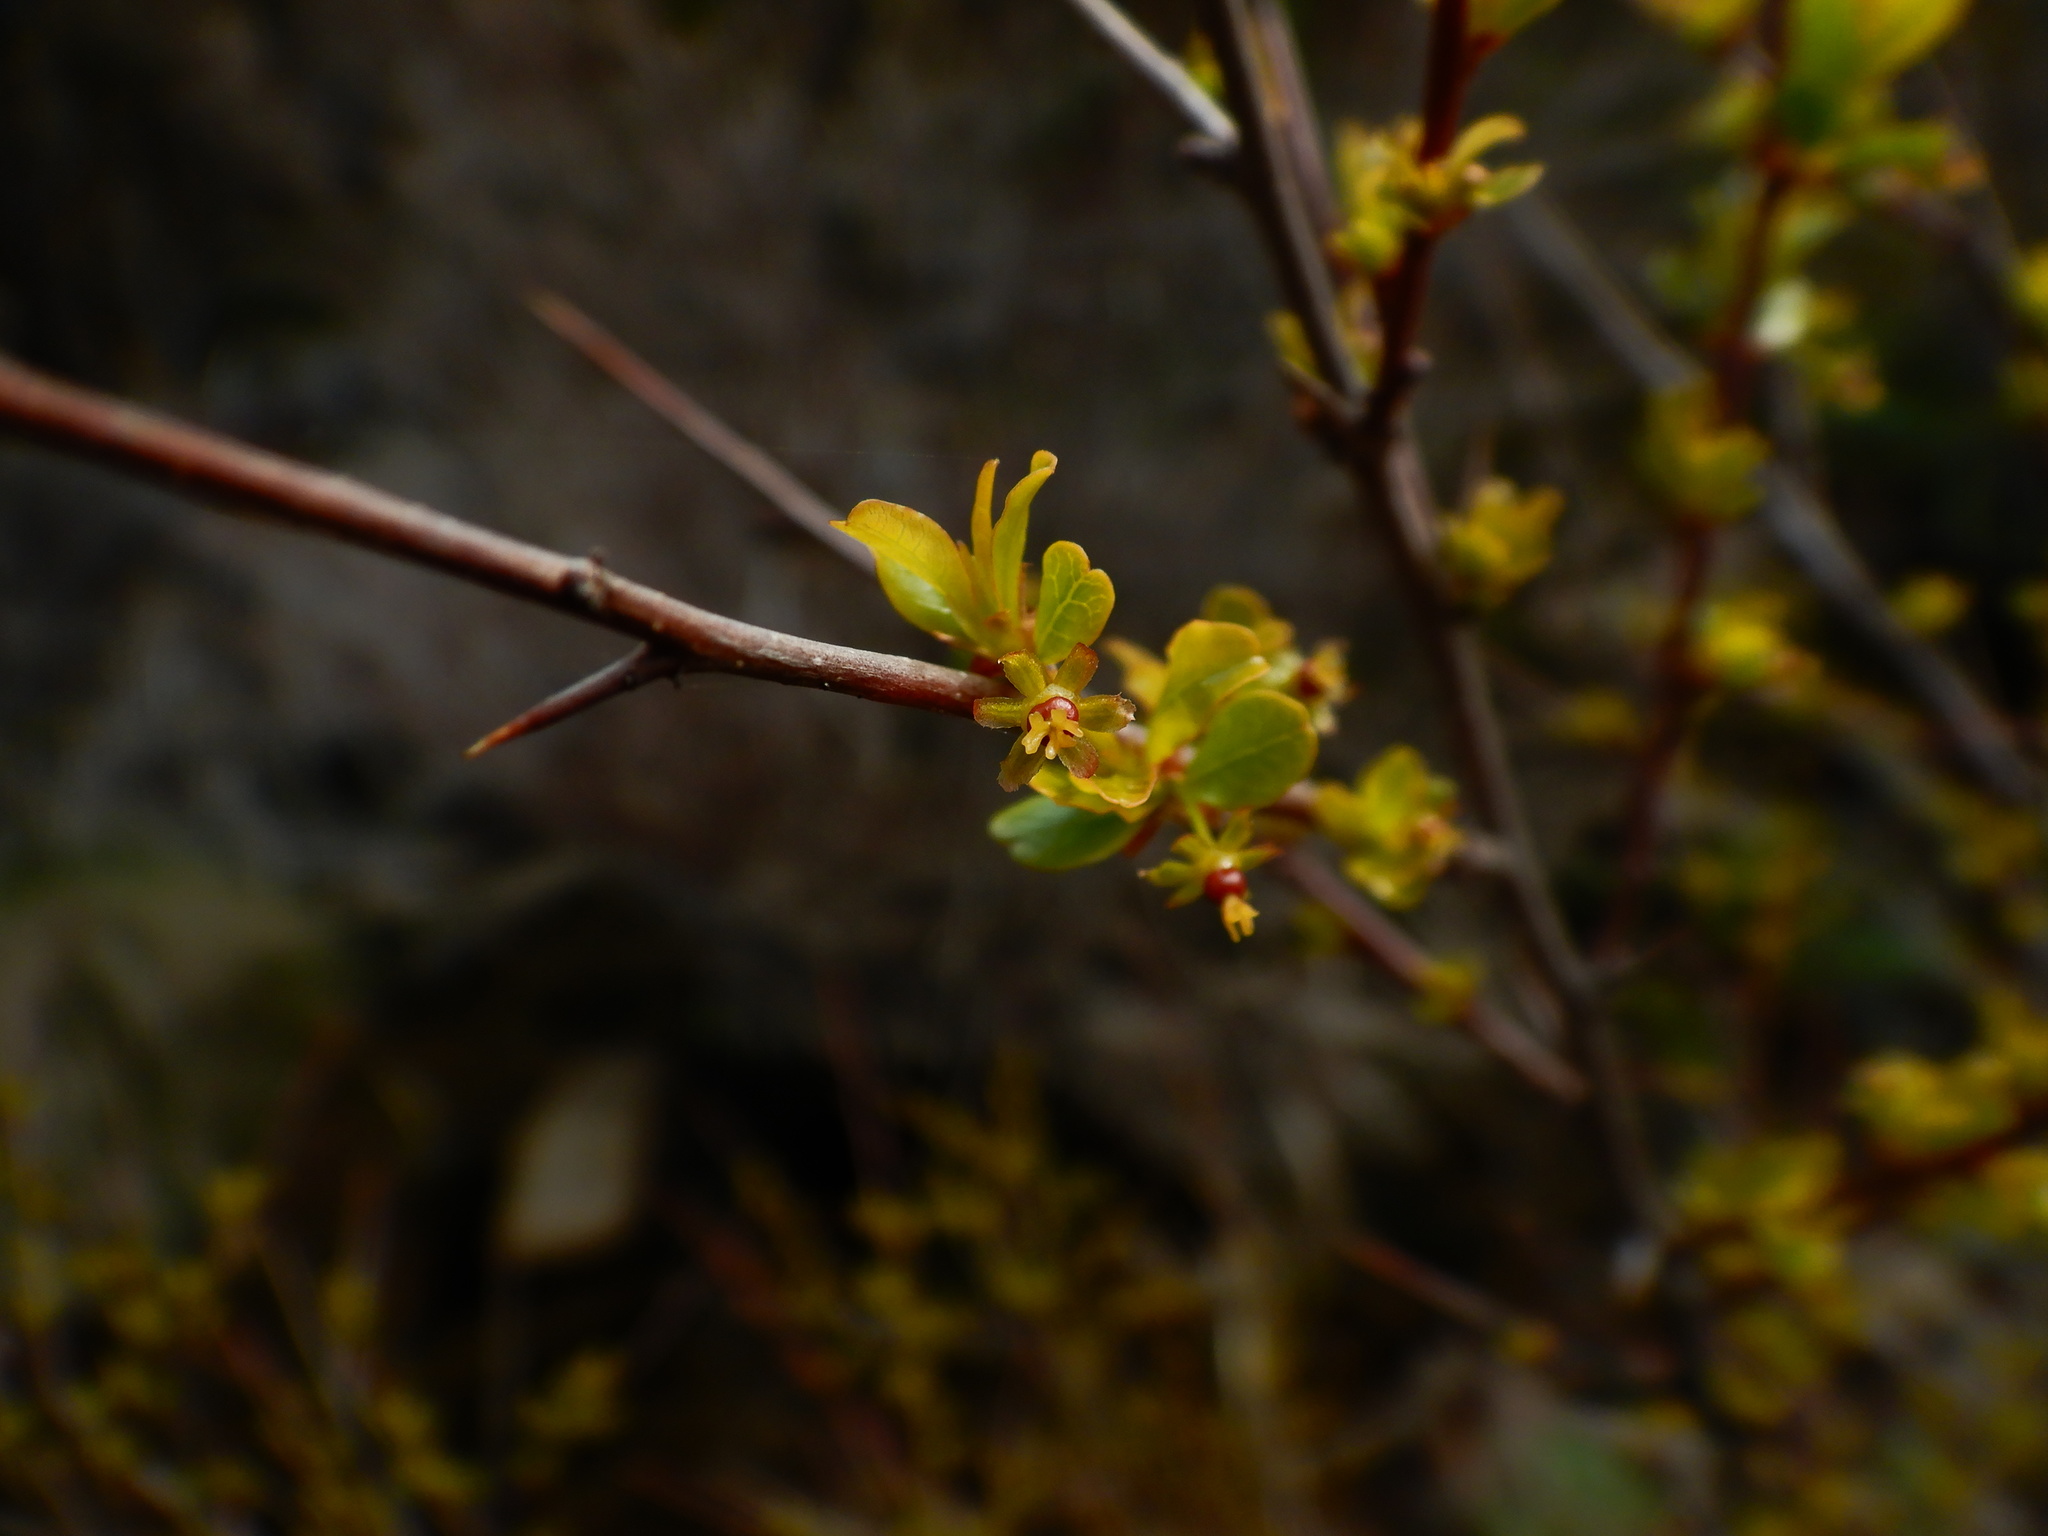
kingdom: Plantae
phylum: Tracheophyta
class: Magnoliopsida
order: Malpighiales
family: Phyllanthaceae
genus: Flueggea
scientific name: Flueggea tinctoria
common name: Tamujo
